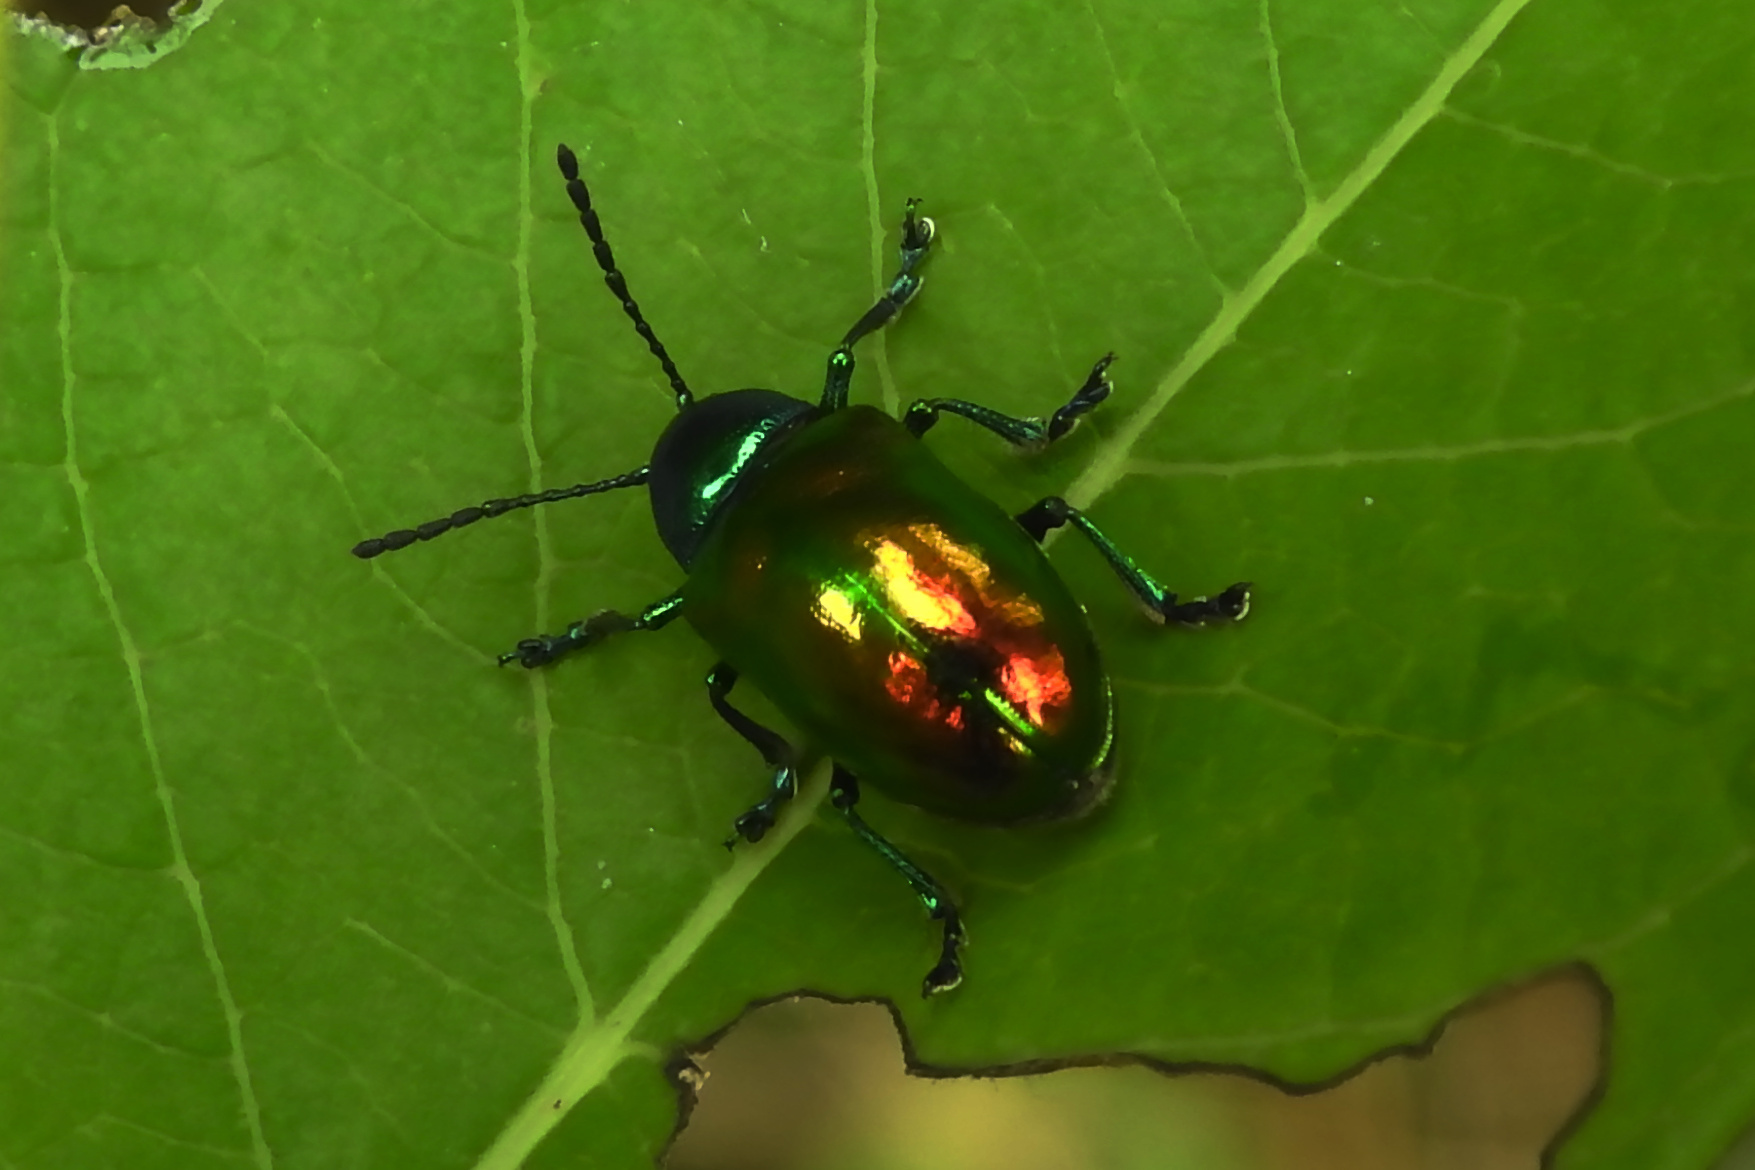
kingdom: Animalia
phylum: Arthropoda
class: Insecta
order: Coleoptera
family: Chrysomelidae
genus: Chrysochus
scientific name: Chrysochus auratus
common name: Dogbane leaf beetle
